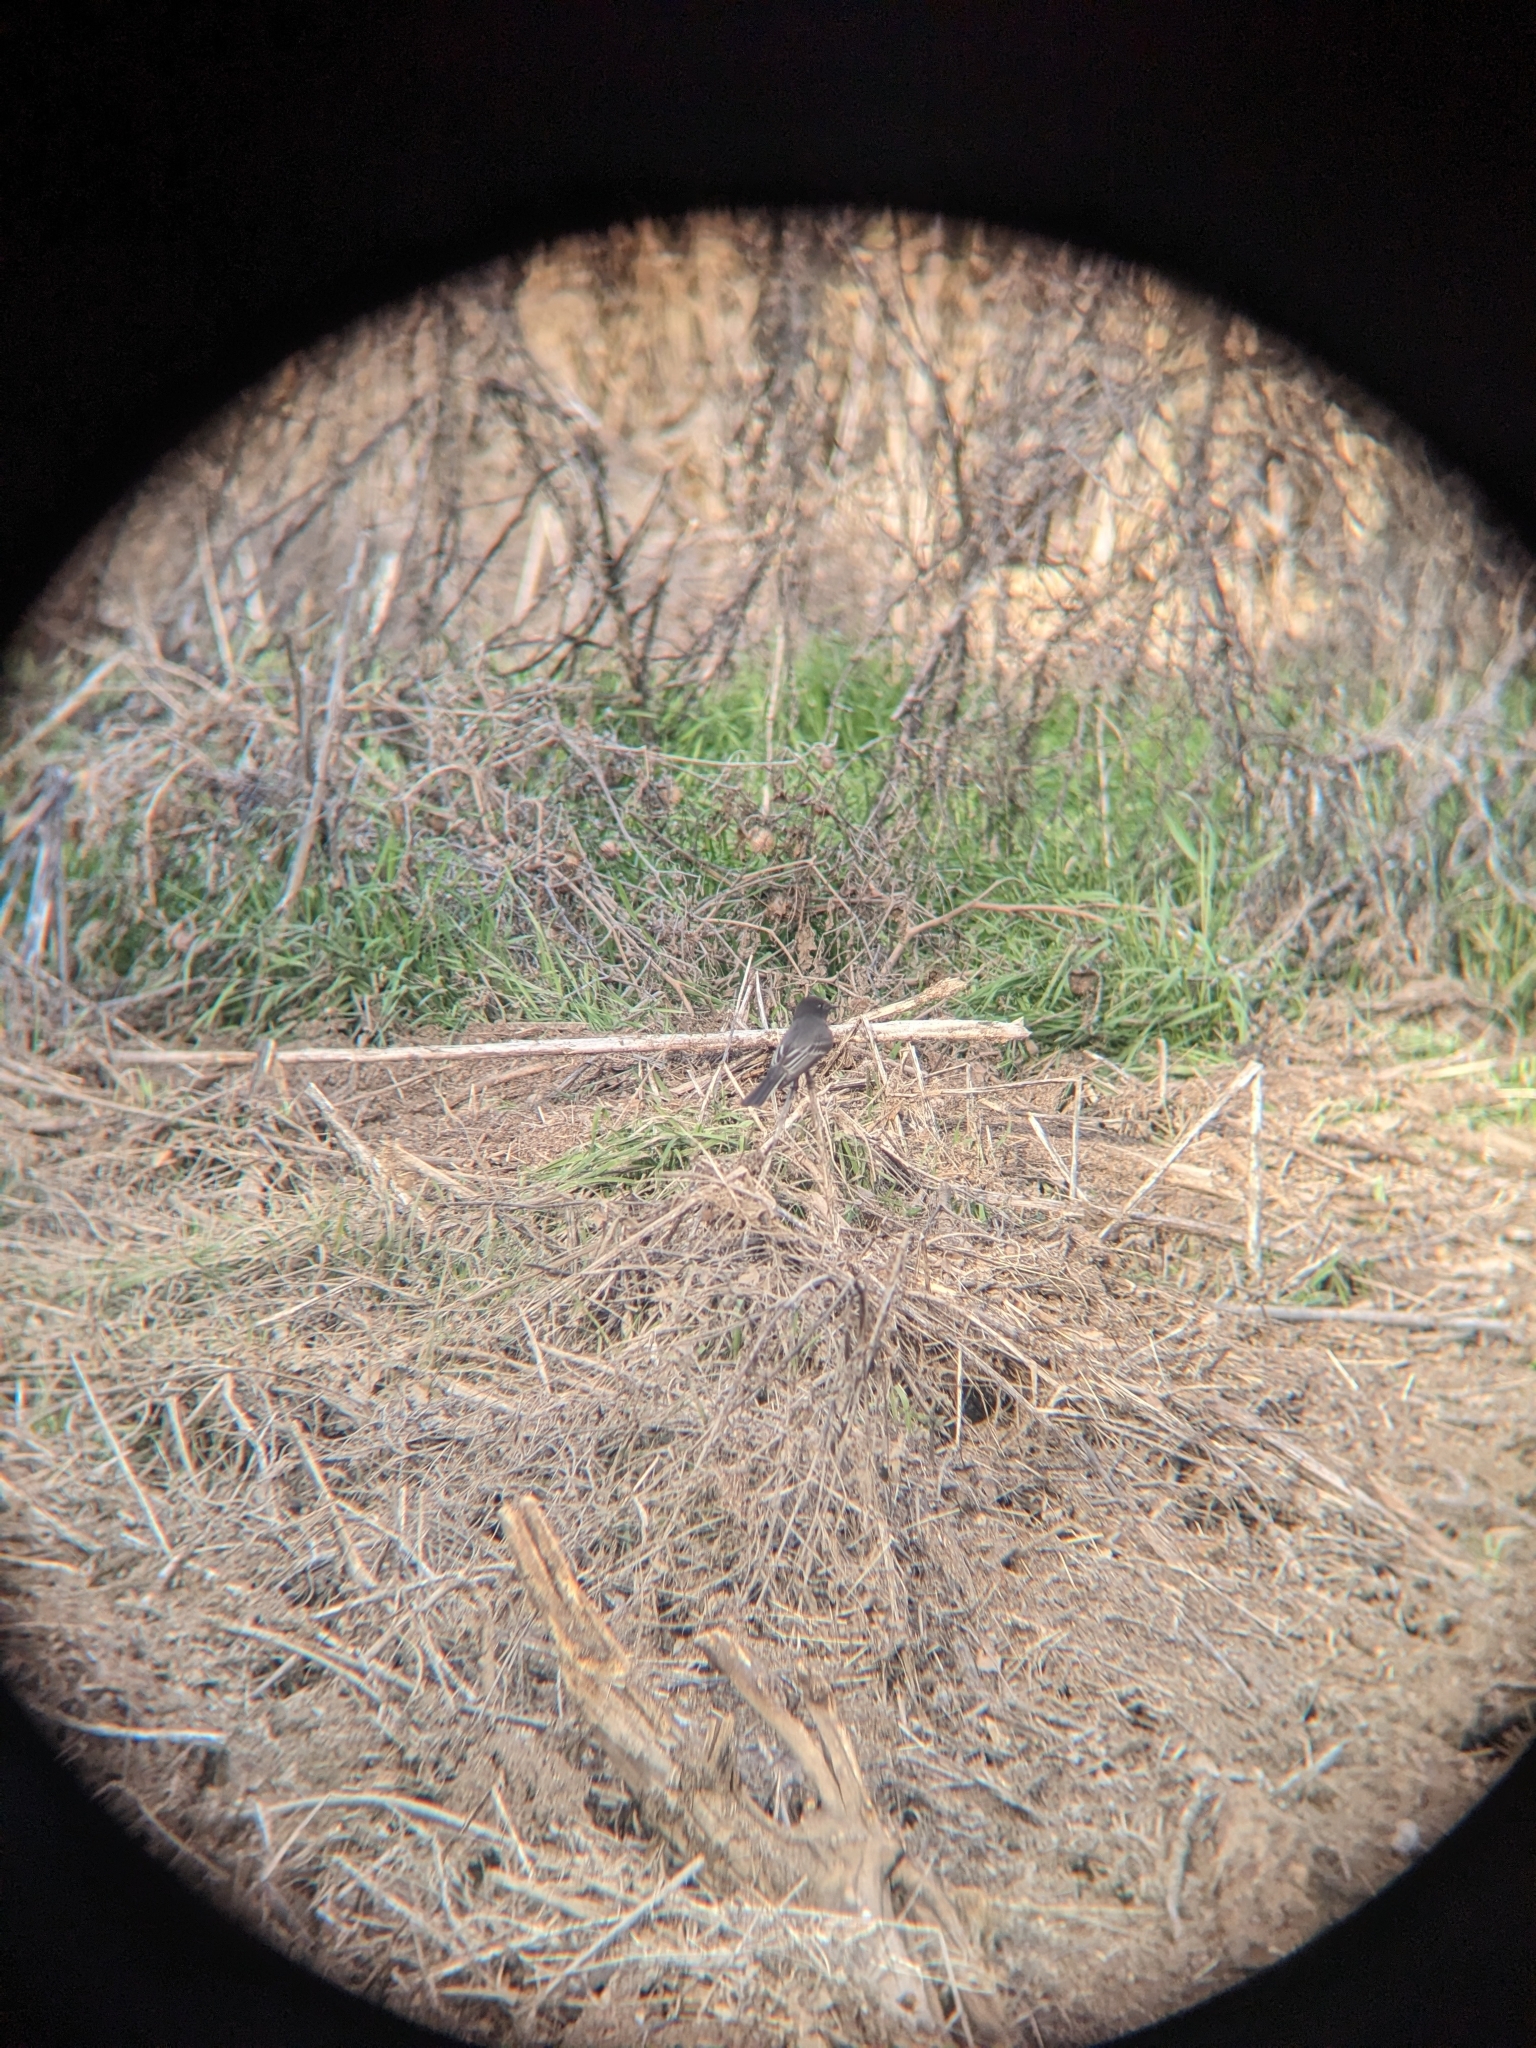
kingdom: Animalia
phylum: Chordata
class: Aves
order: Passeriformes
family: Tyrannidae
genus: Sayornis
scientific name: Sayornis nigricans
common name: Black phoebe
